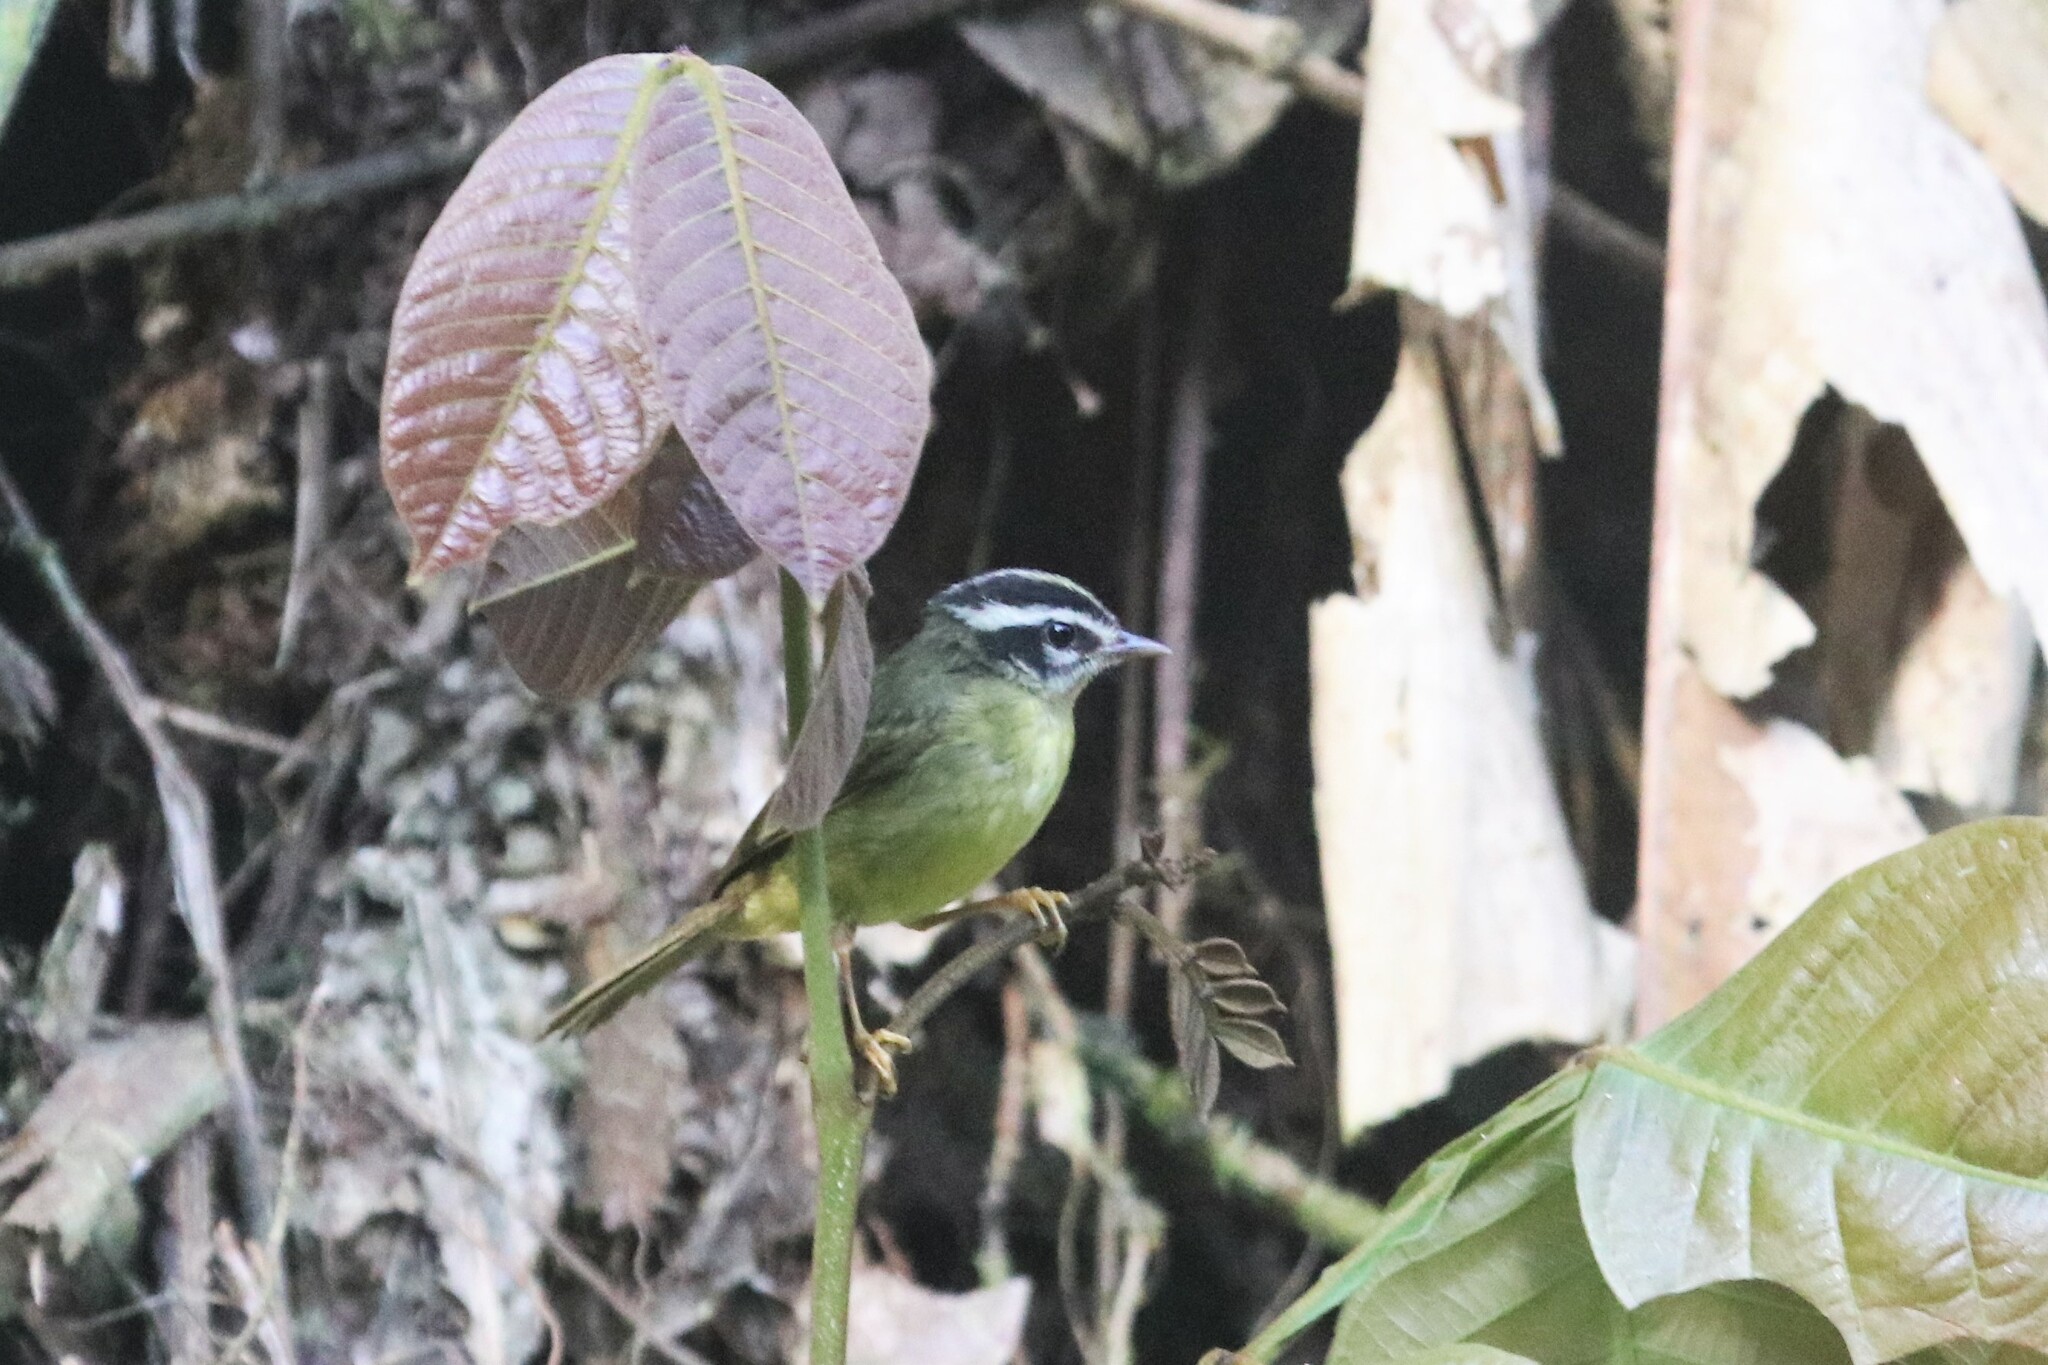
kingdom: Animalia
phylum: Chordata
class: Aves
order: Passeriformes
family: Parulidae
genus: Basileuterus
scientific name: Basileuterus tristriatus
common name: Three-striped warbler
